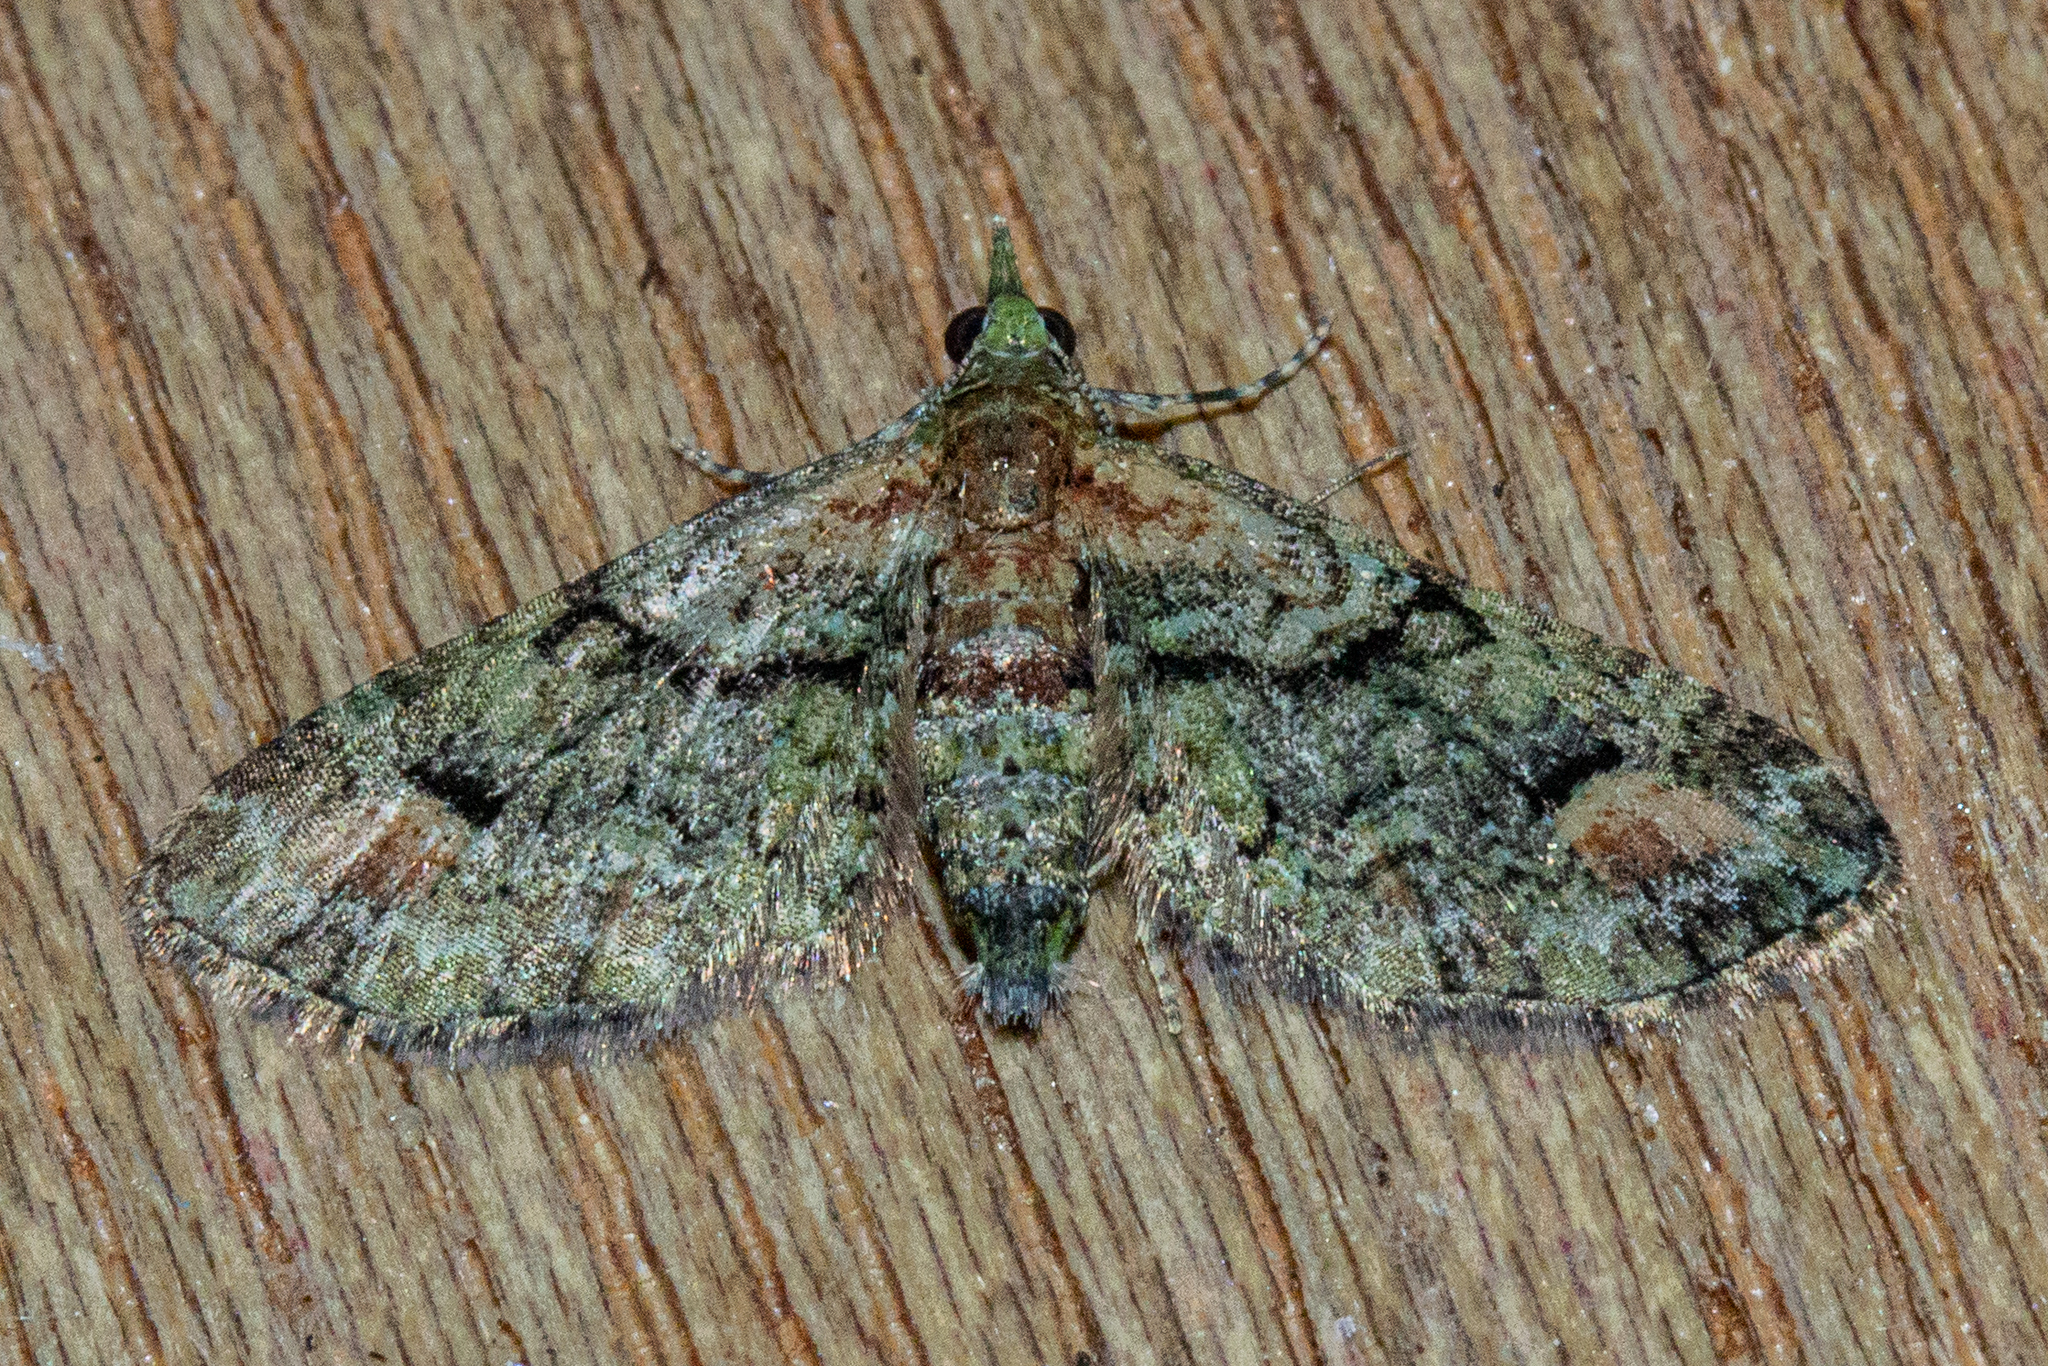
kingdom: Animalia
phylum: Arthropoda
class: Insecta
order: Lepidoptera
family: Geometridae
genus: Idaea
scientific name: Idaea mutanda
